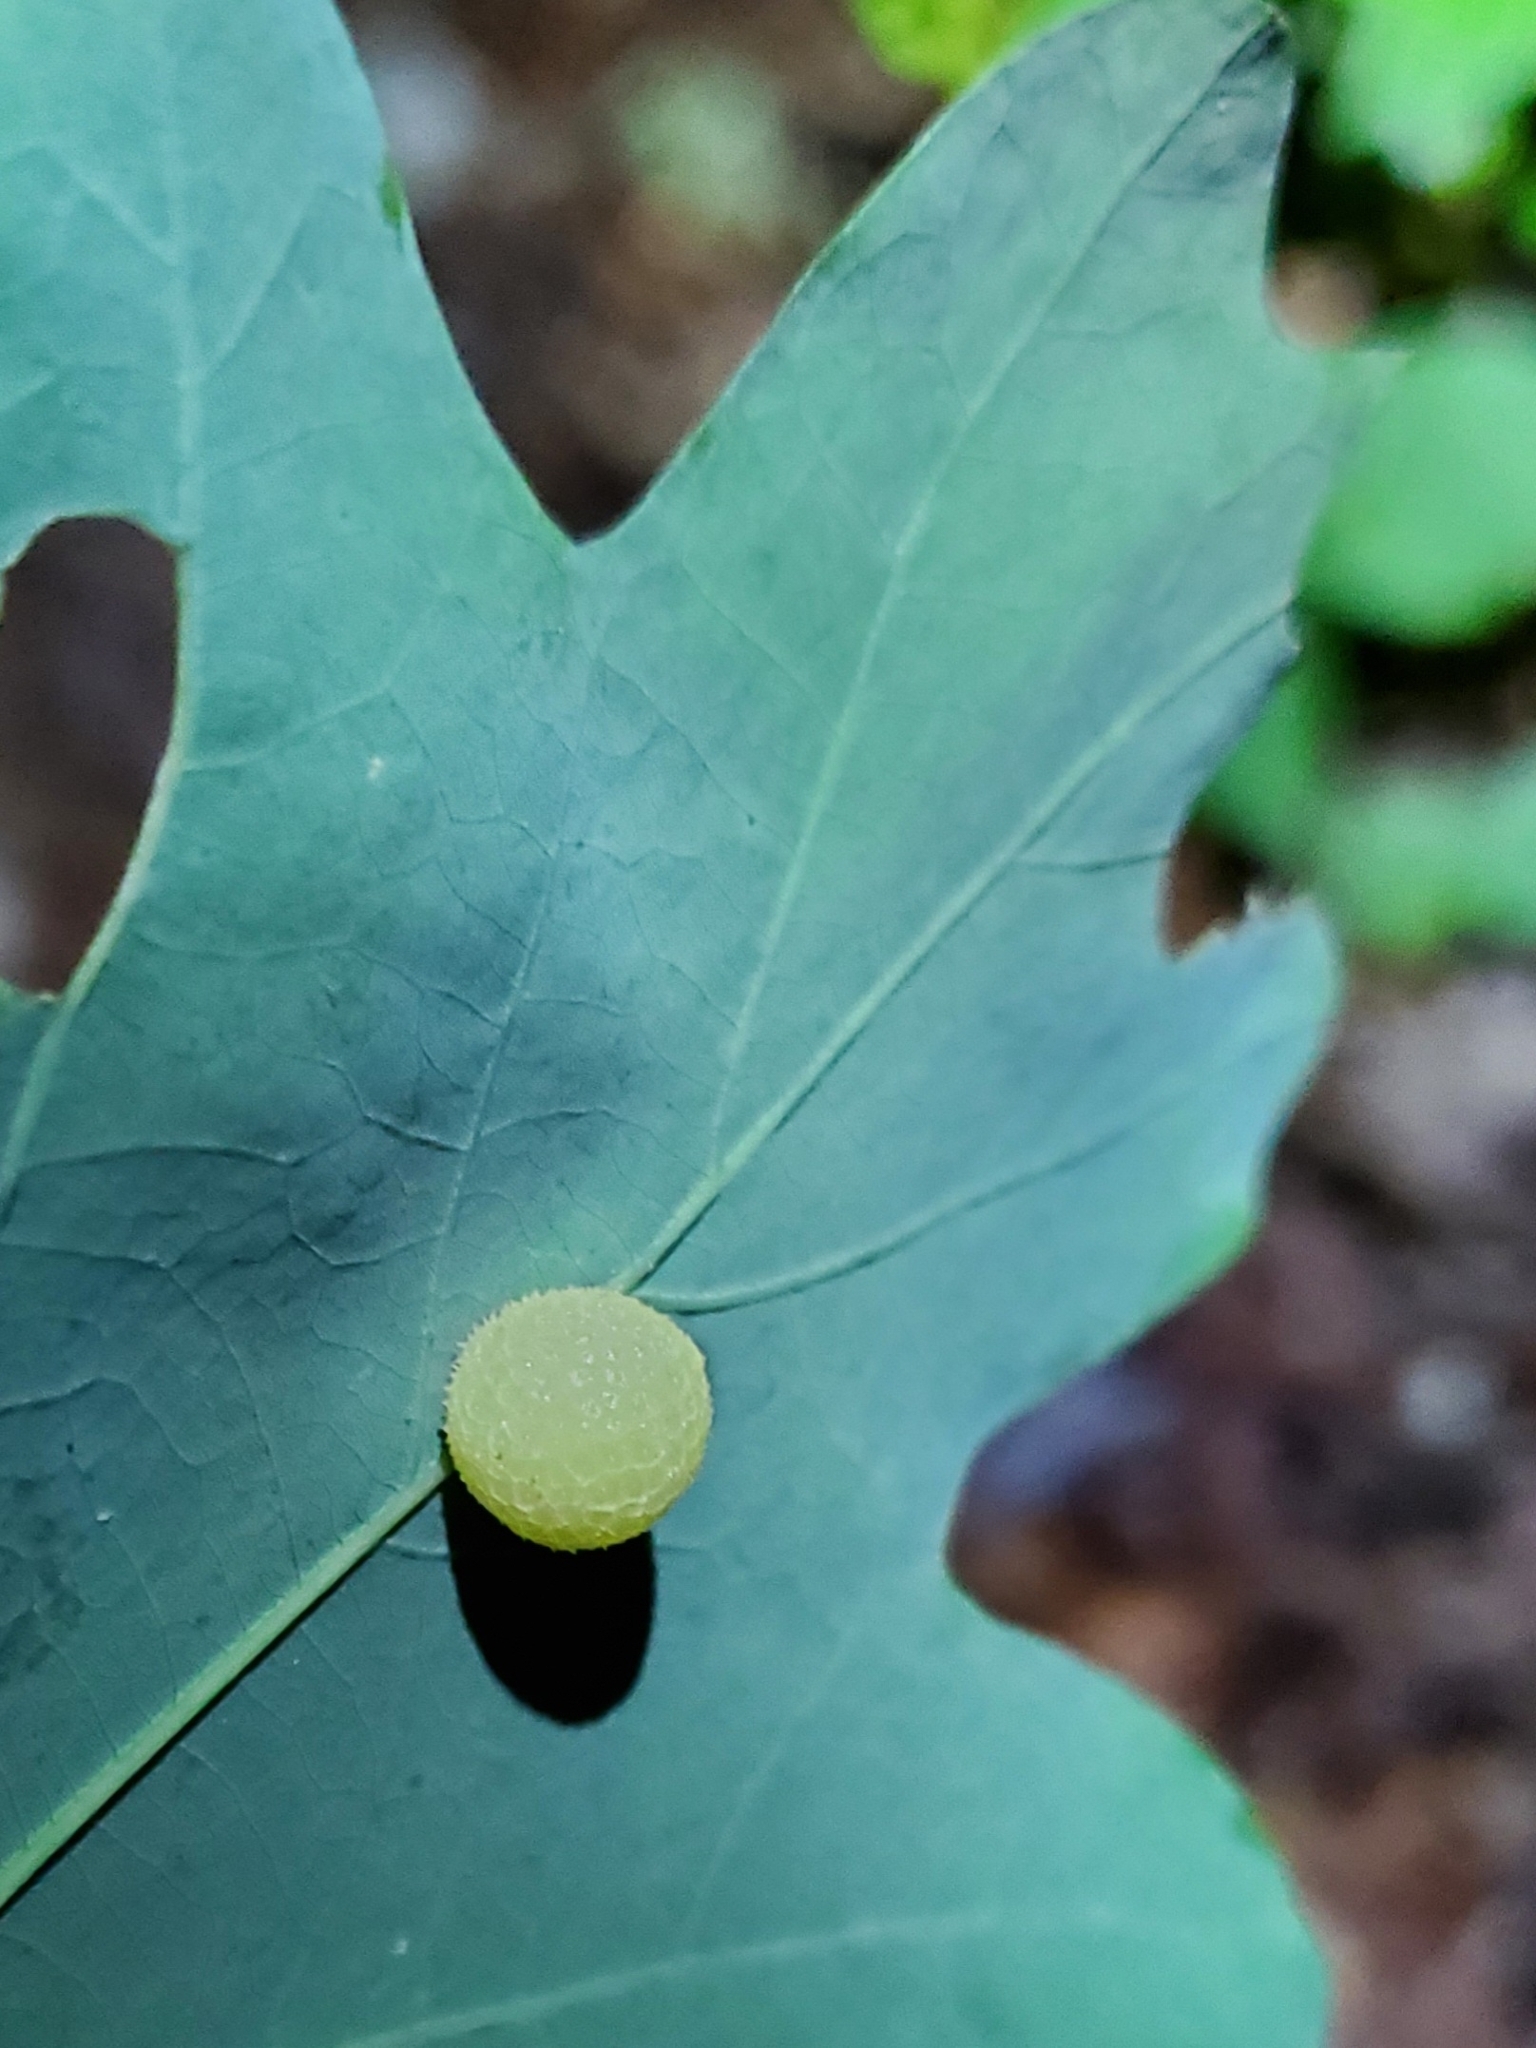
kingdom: Animalia
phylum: Arthropoda
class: Insecta
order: Hymenoptera
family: Cynipidae
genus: Acraspis
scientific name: Acraspis
